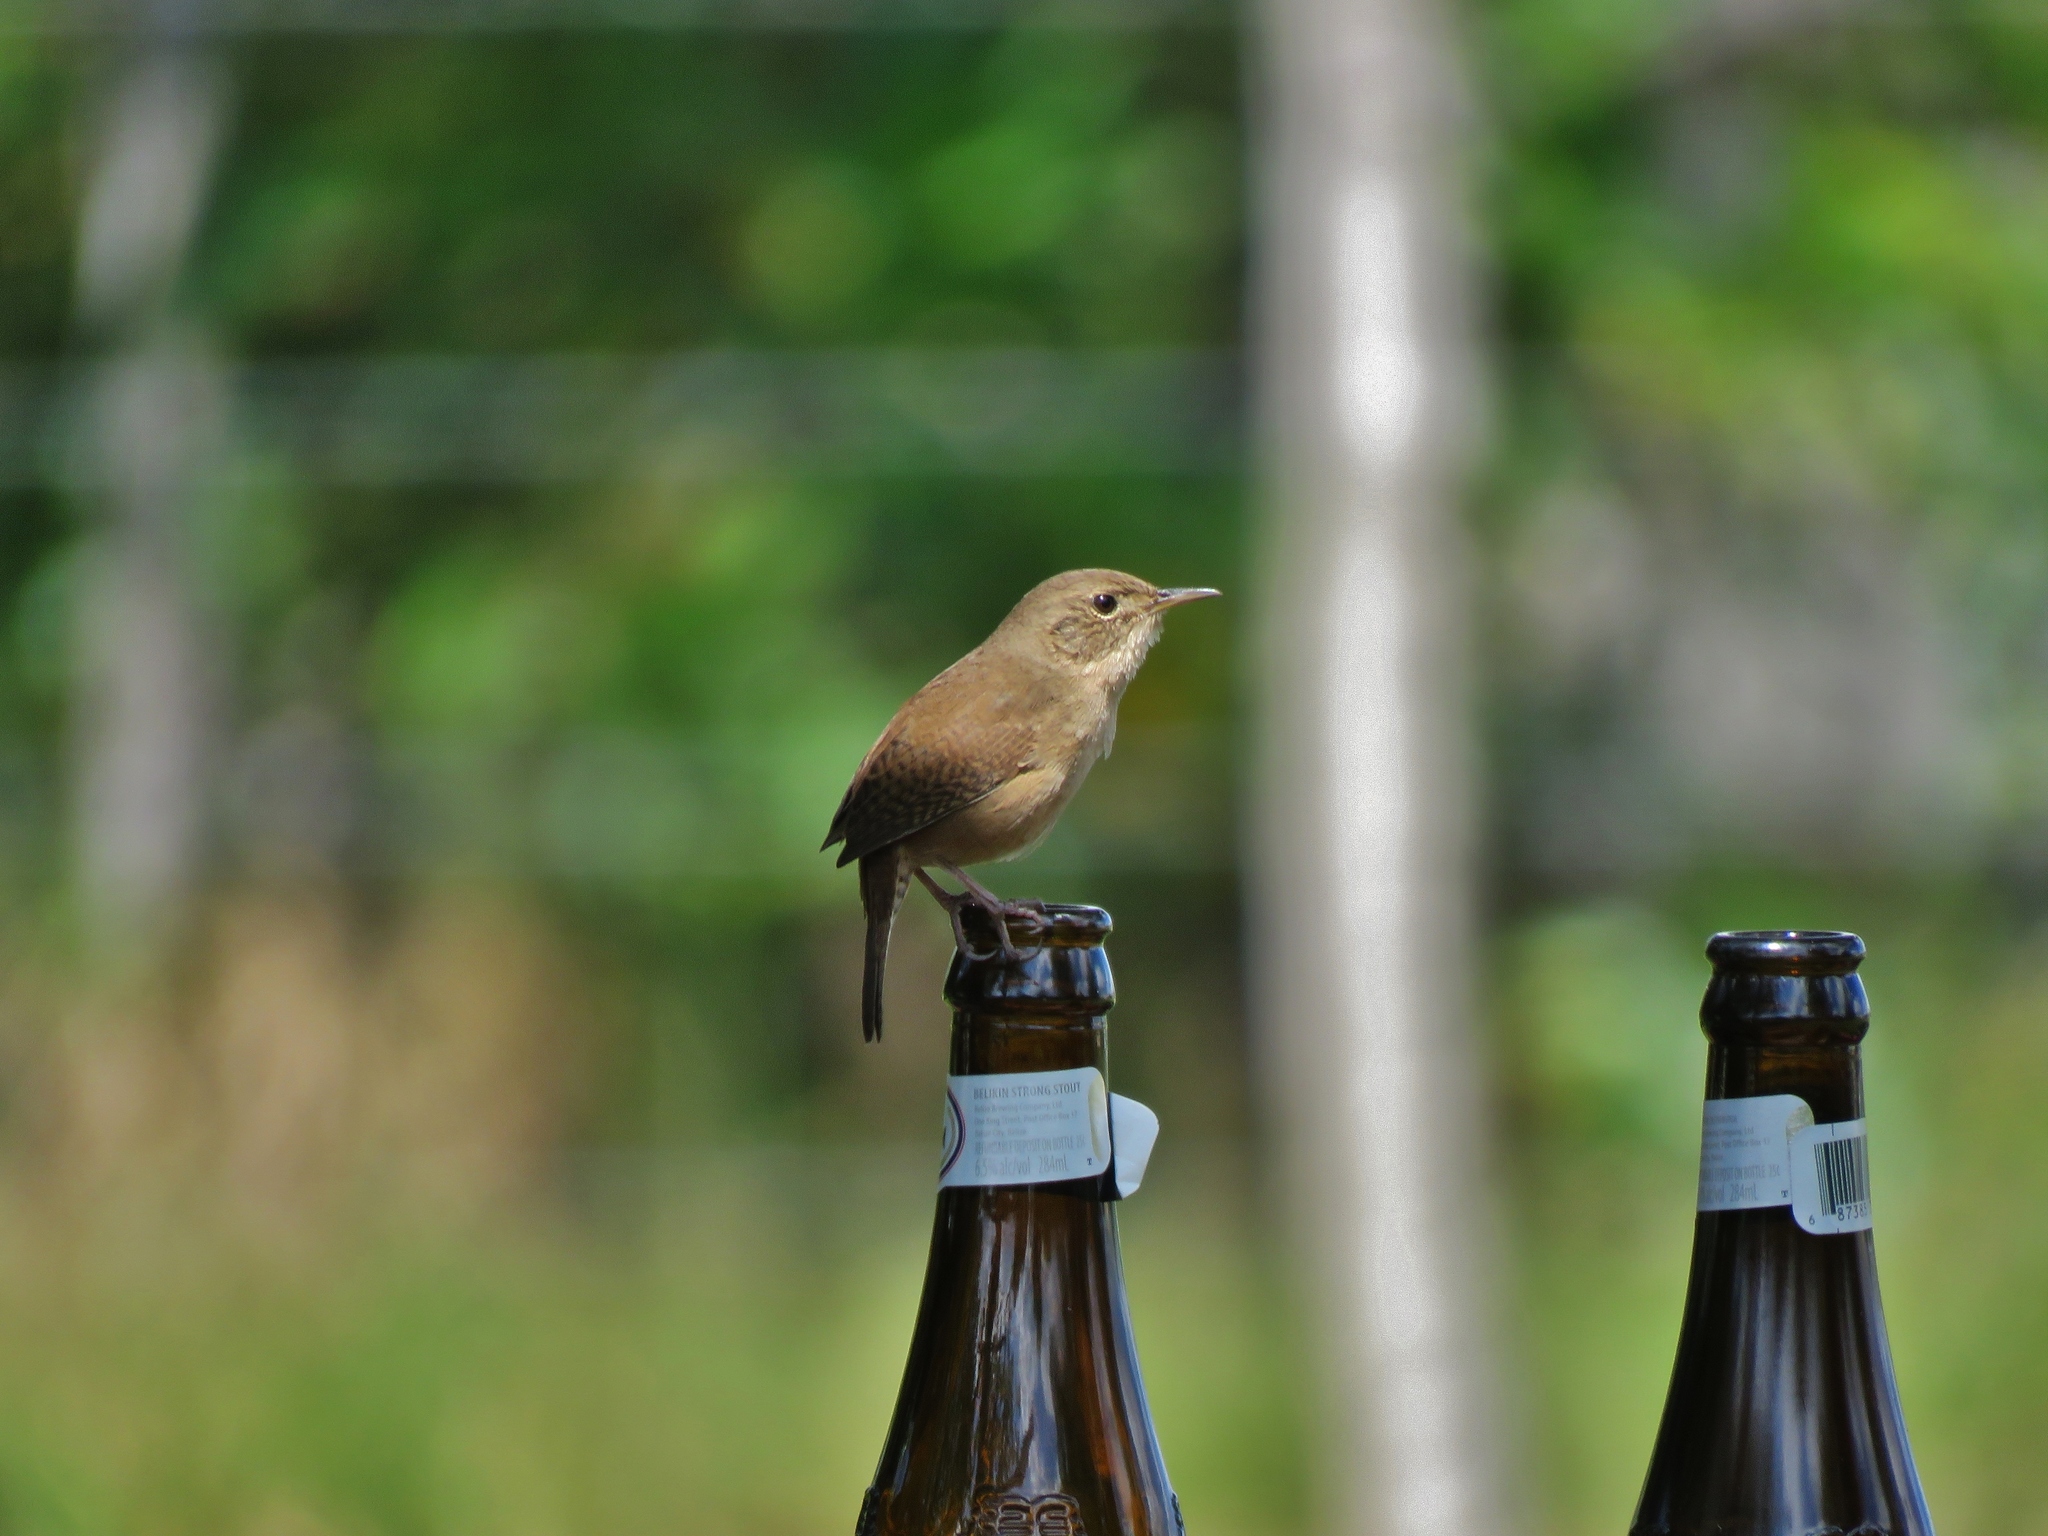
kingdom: Animalia
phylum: Chordata
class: Aves
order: Passeriformes
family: Troglodytidae
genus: Troglodytes
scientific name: Troglodytes aedon
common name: House wren
